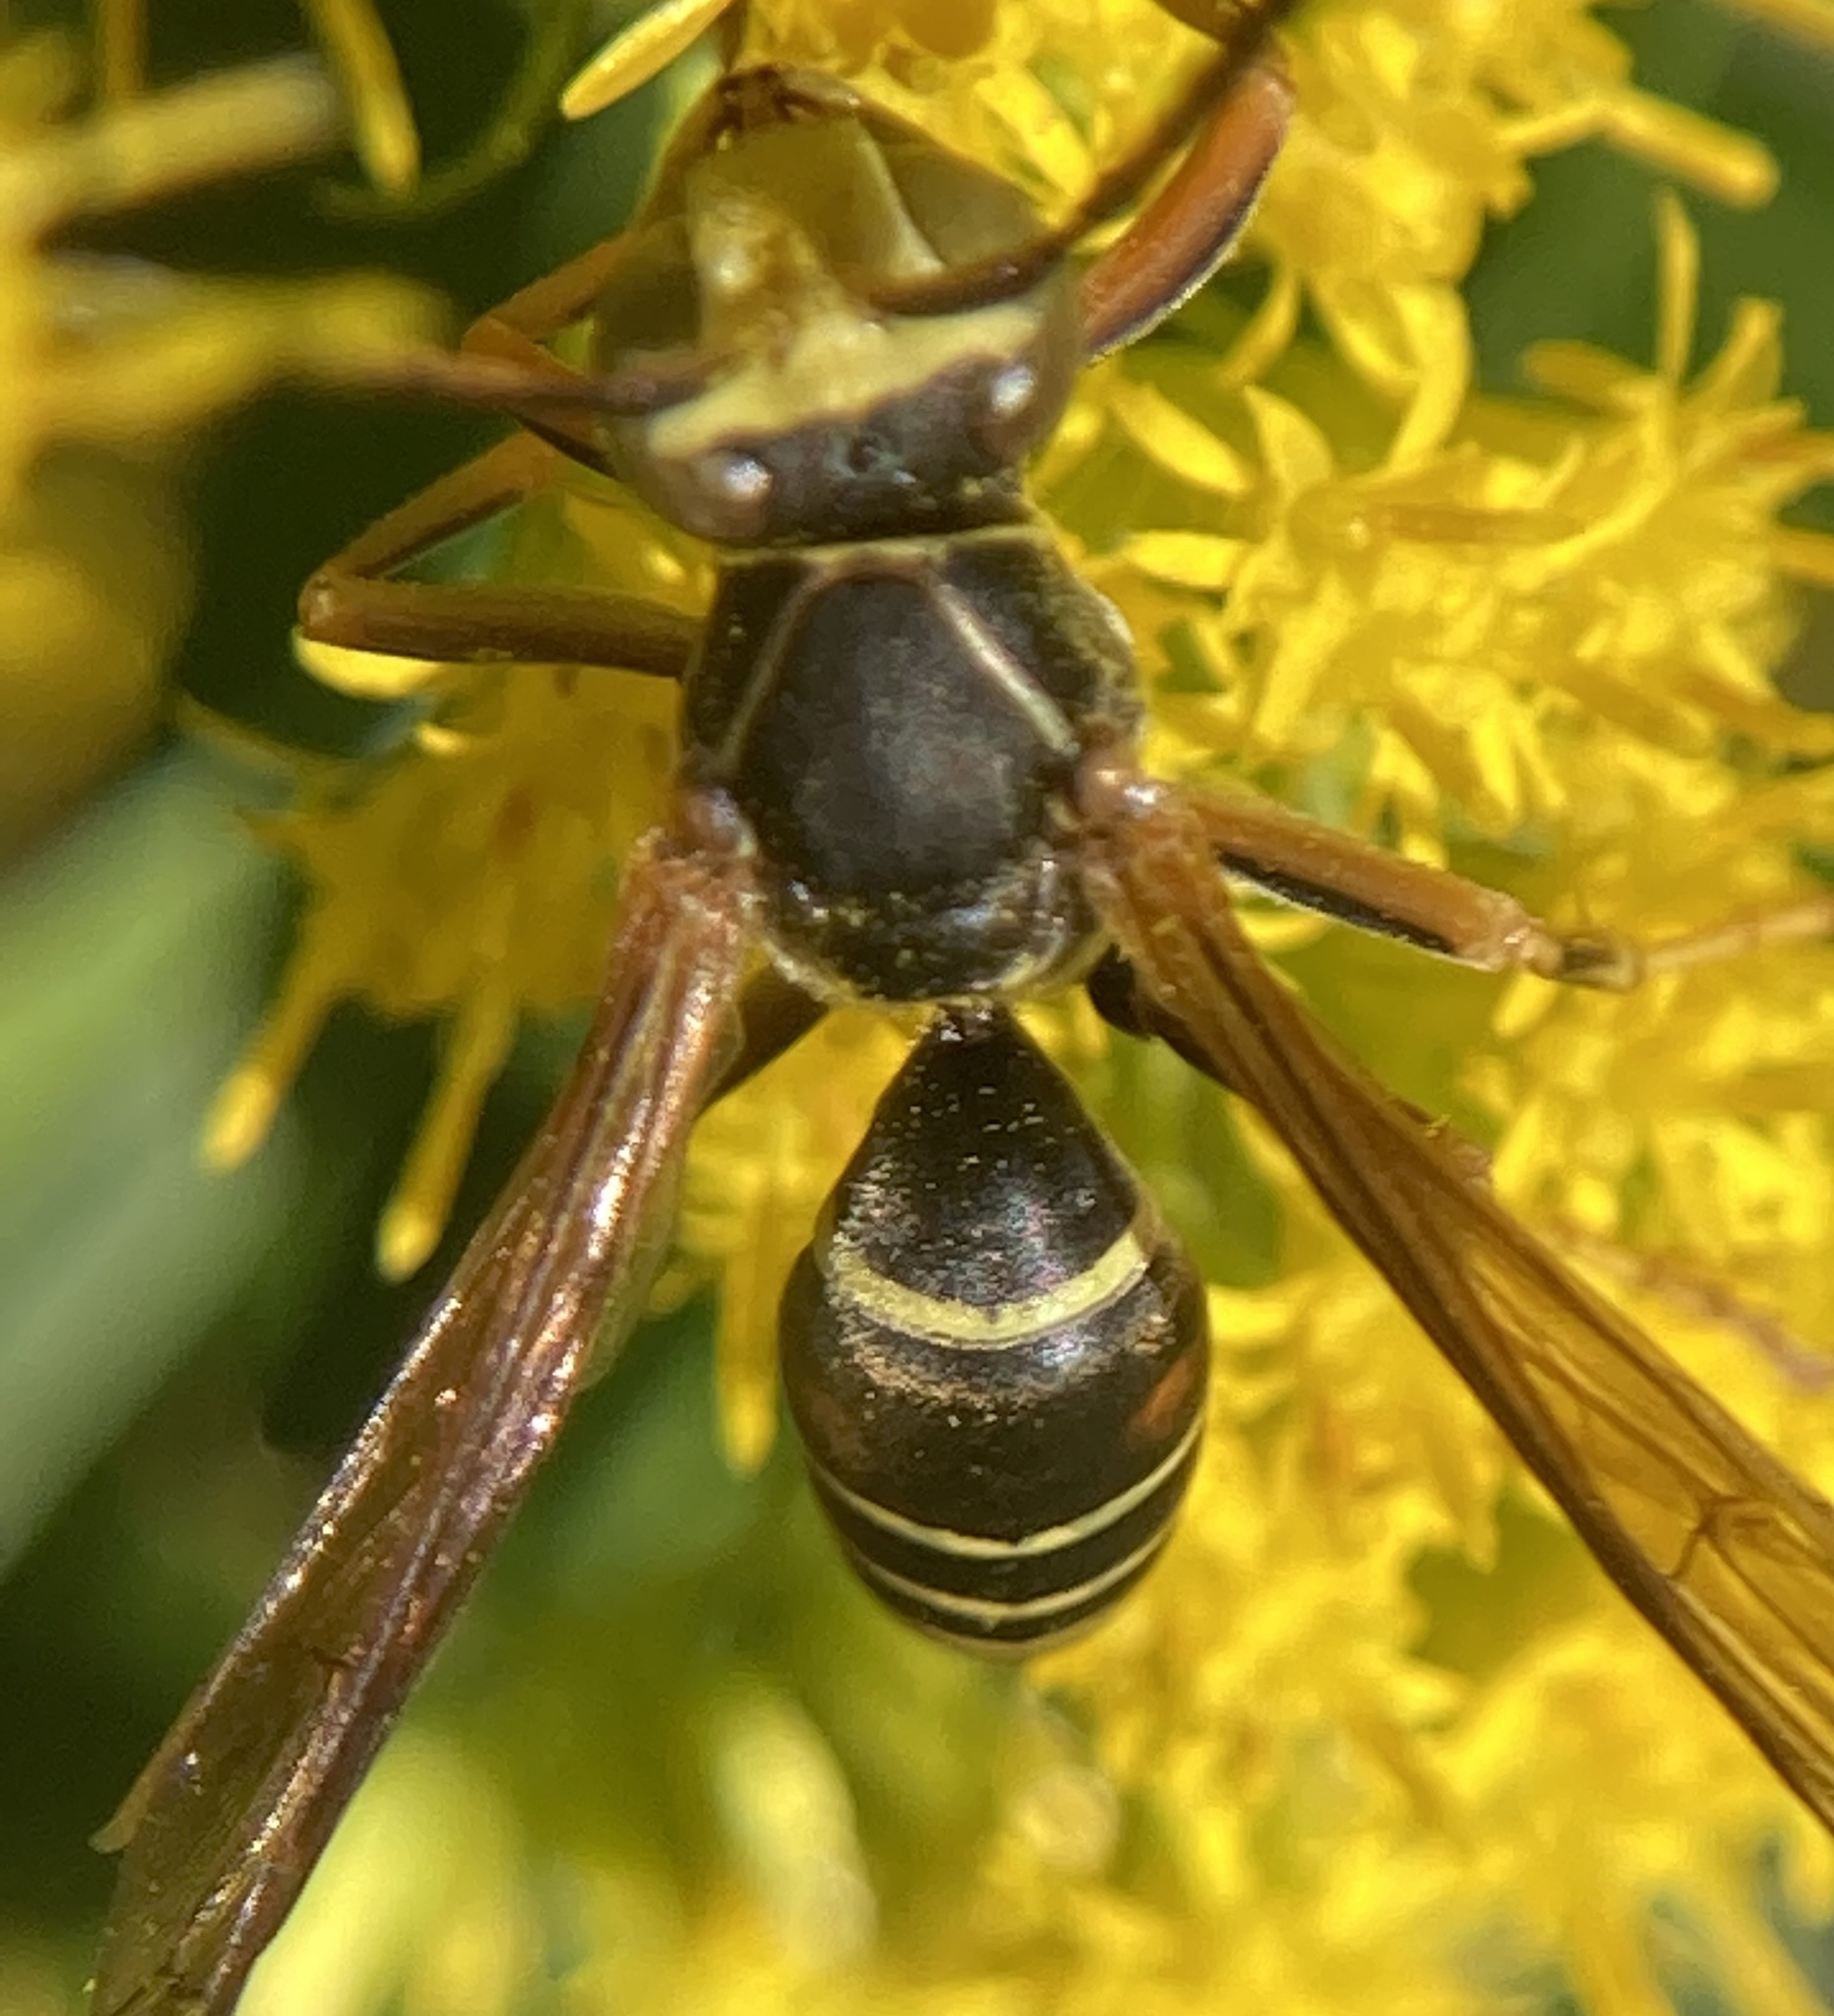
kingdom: Animalia
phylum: Arthropoda
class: Insecta
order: Hymenoptera
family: Eumenidae
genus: Polistes
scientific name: Polistes fuscatus
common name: Dark paper wasp
